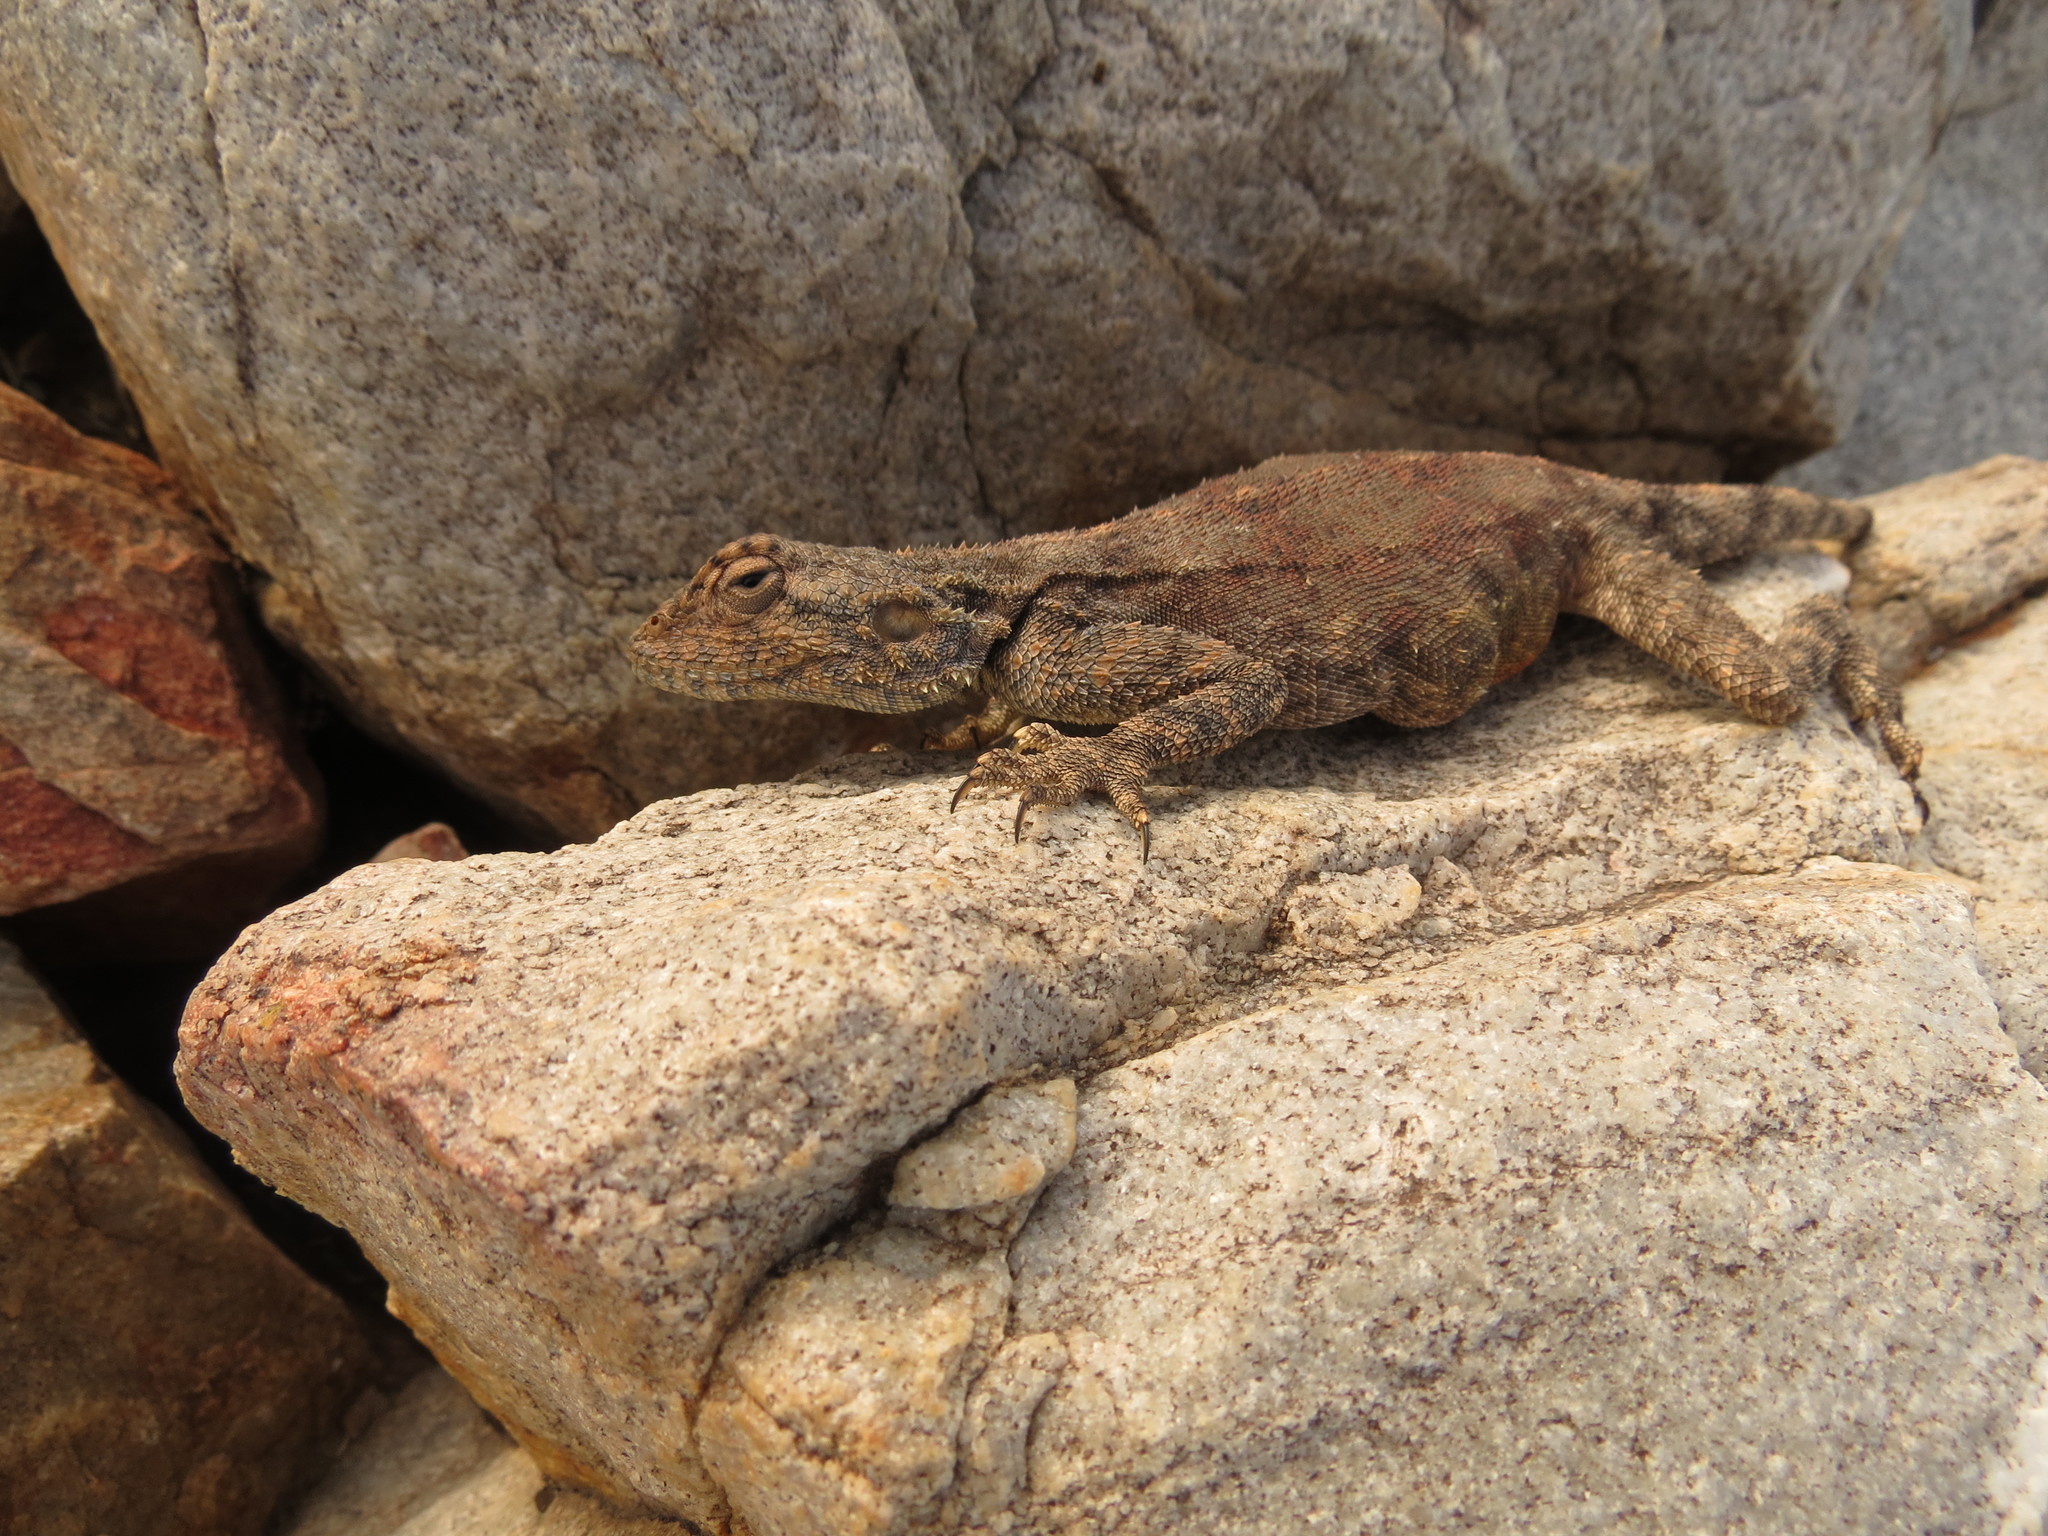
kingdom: Animalia
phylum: Chordata
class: Squamata
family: Agamidae
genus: Agama
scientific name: Agama atra
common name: Southern african rock agama
